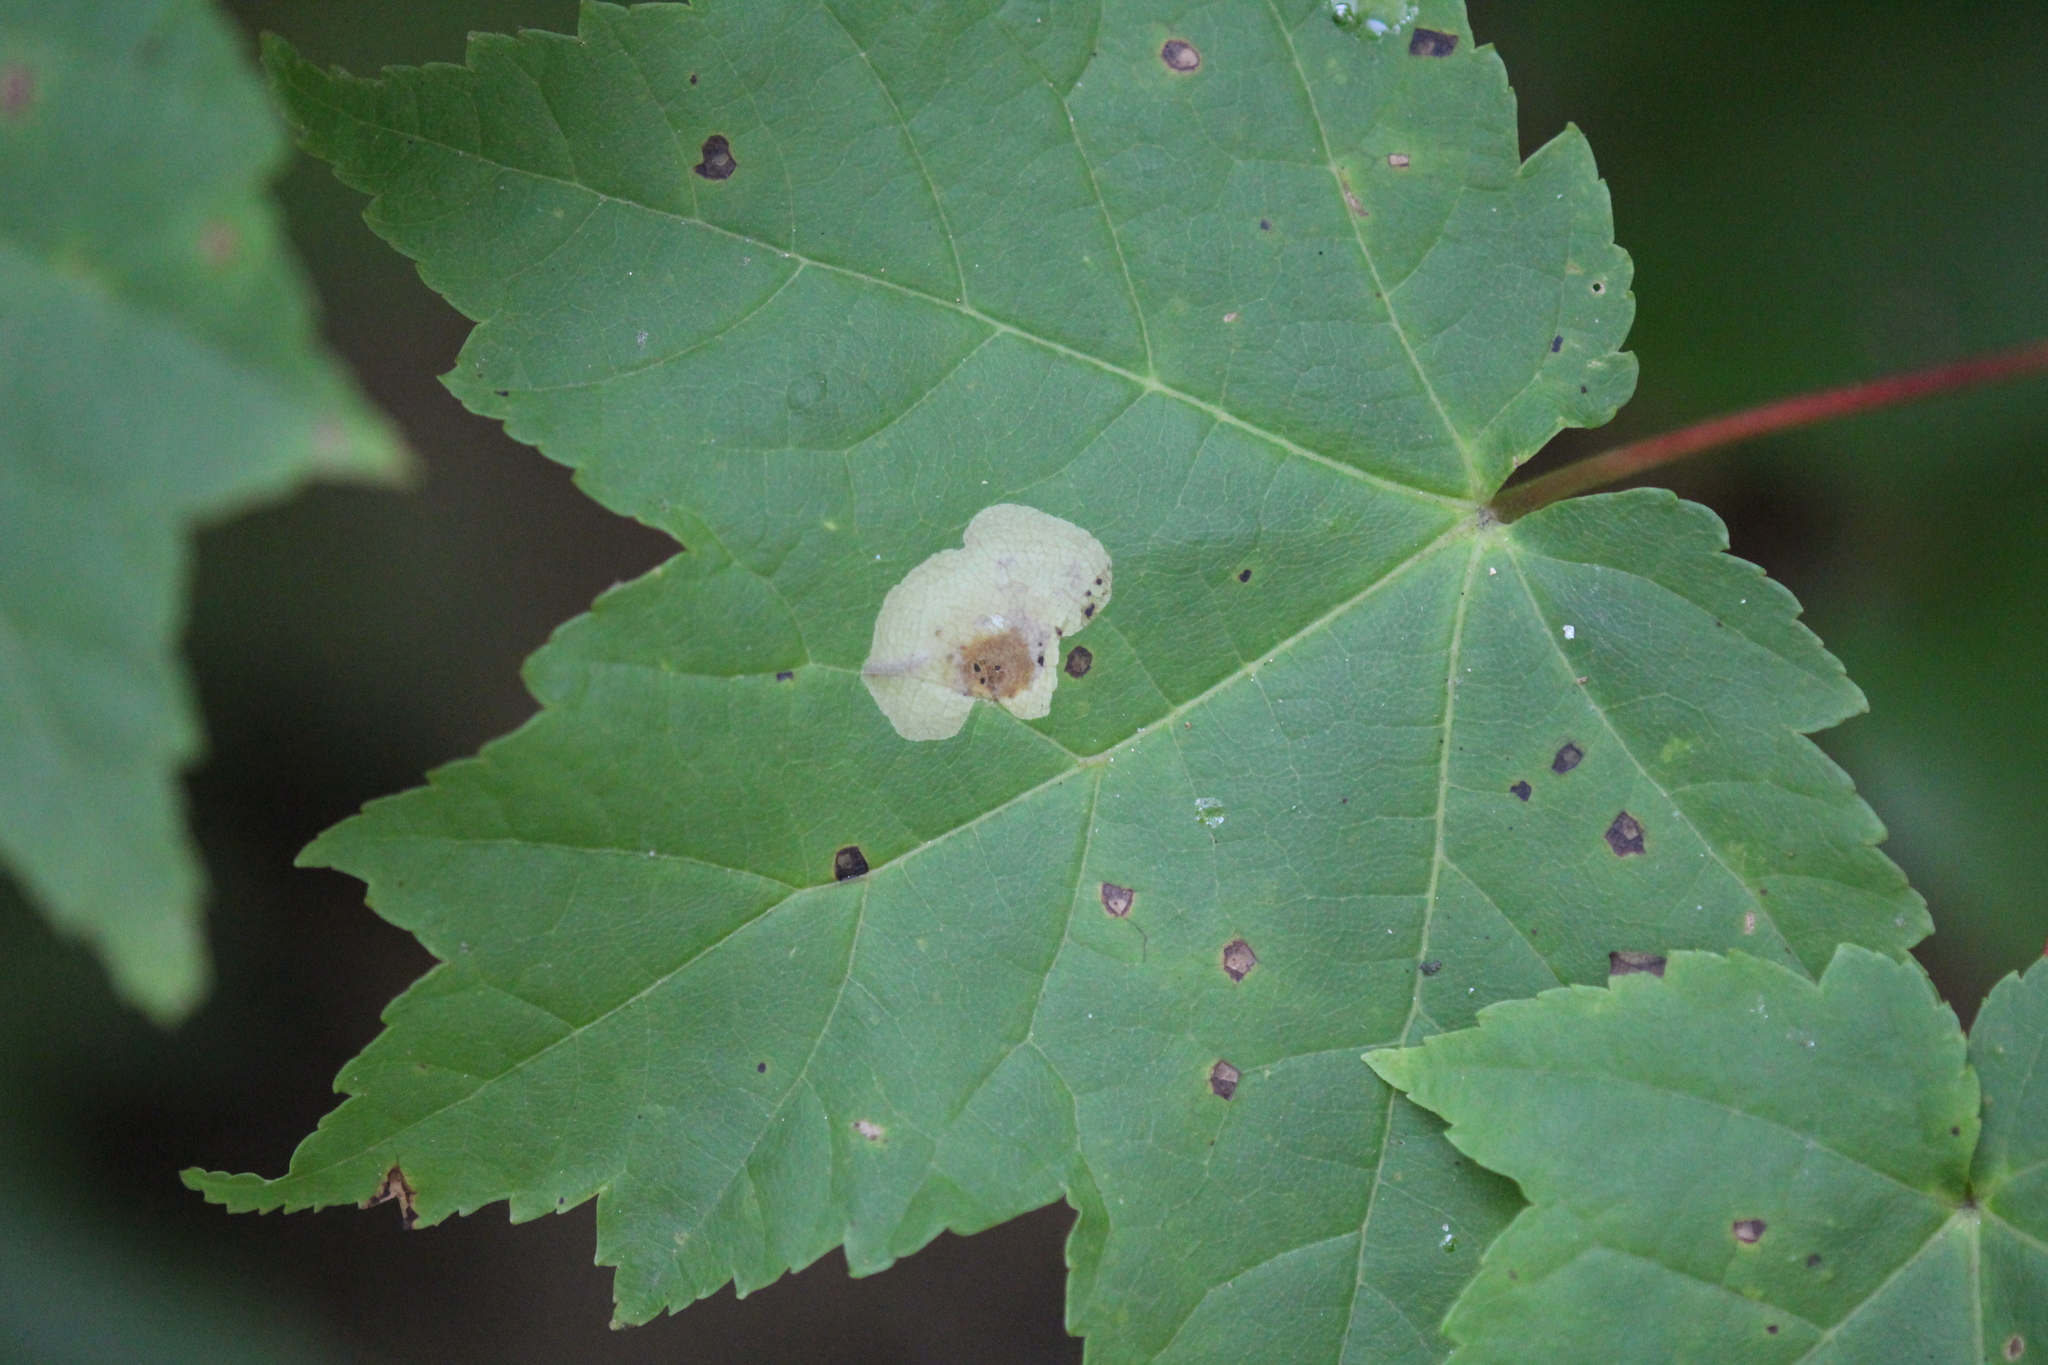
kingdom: Plantae
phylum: Tracheophyta
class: Magnoliopsida
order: Sapindales
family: Sapindaceae
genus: Acer
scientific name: Acer rubrum
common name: Red maple
